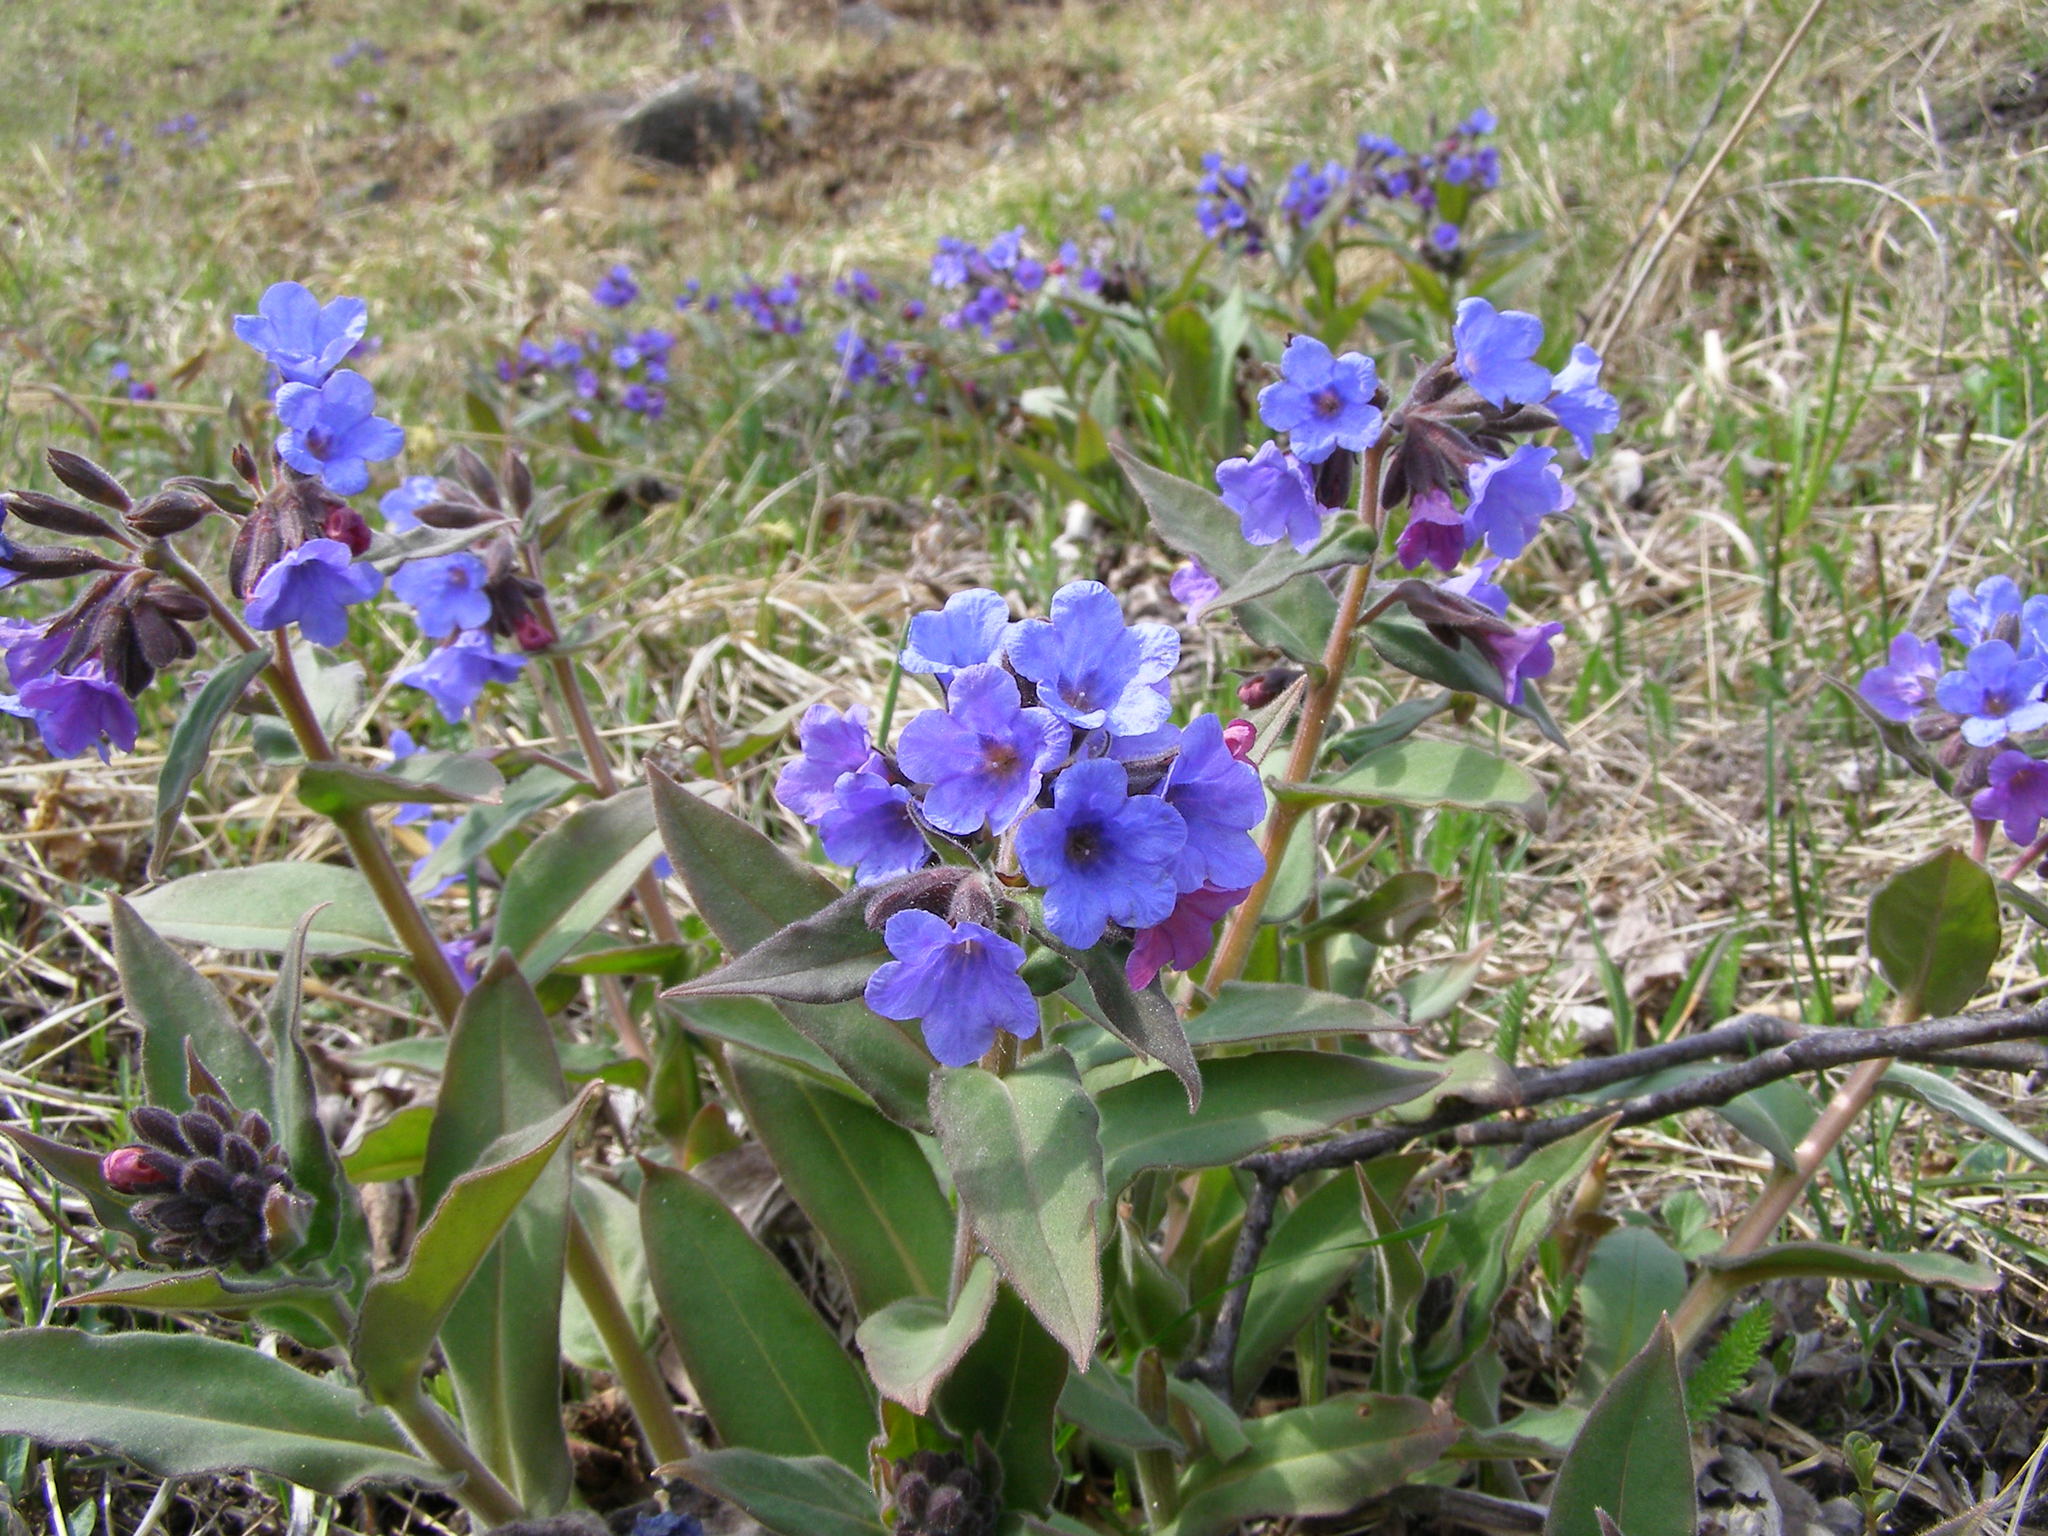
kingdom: Plantae
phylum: Tracheophyta
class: Magnoliopsida
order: Boraginales
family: Boraginaceae
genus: Pulmonaria
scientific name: Pulmonaria mollis
